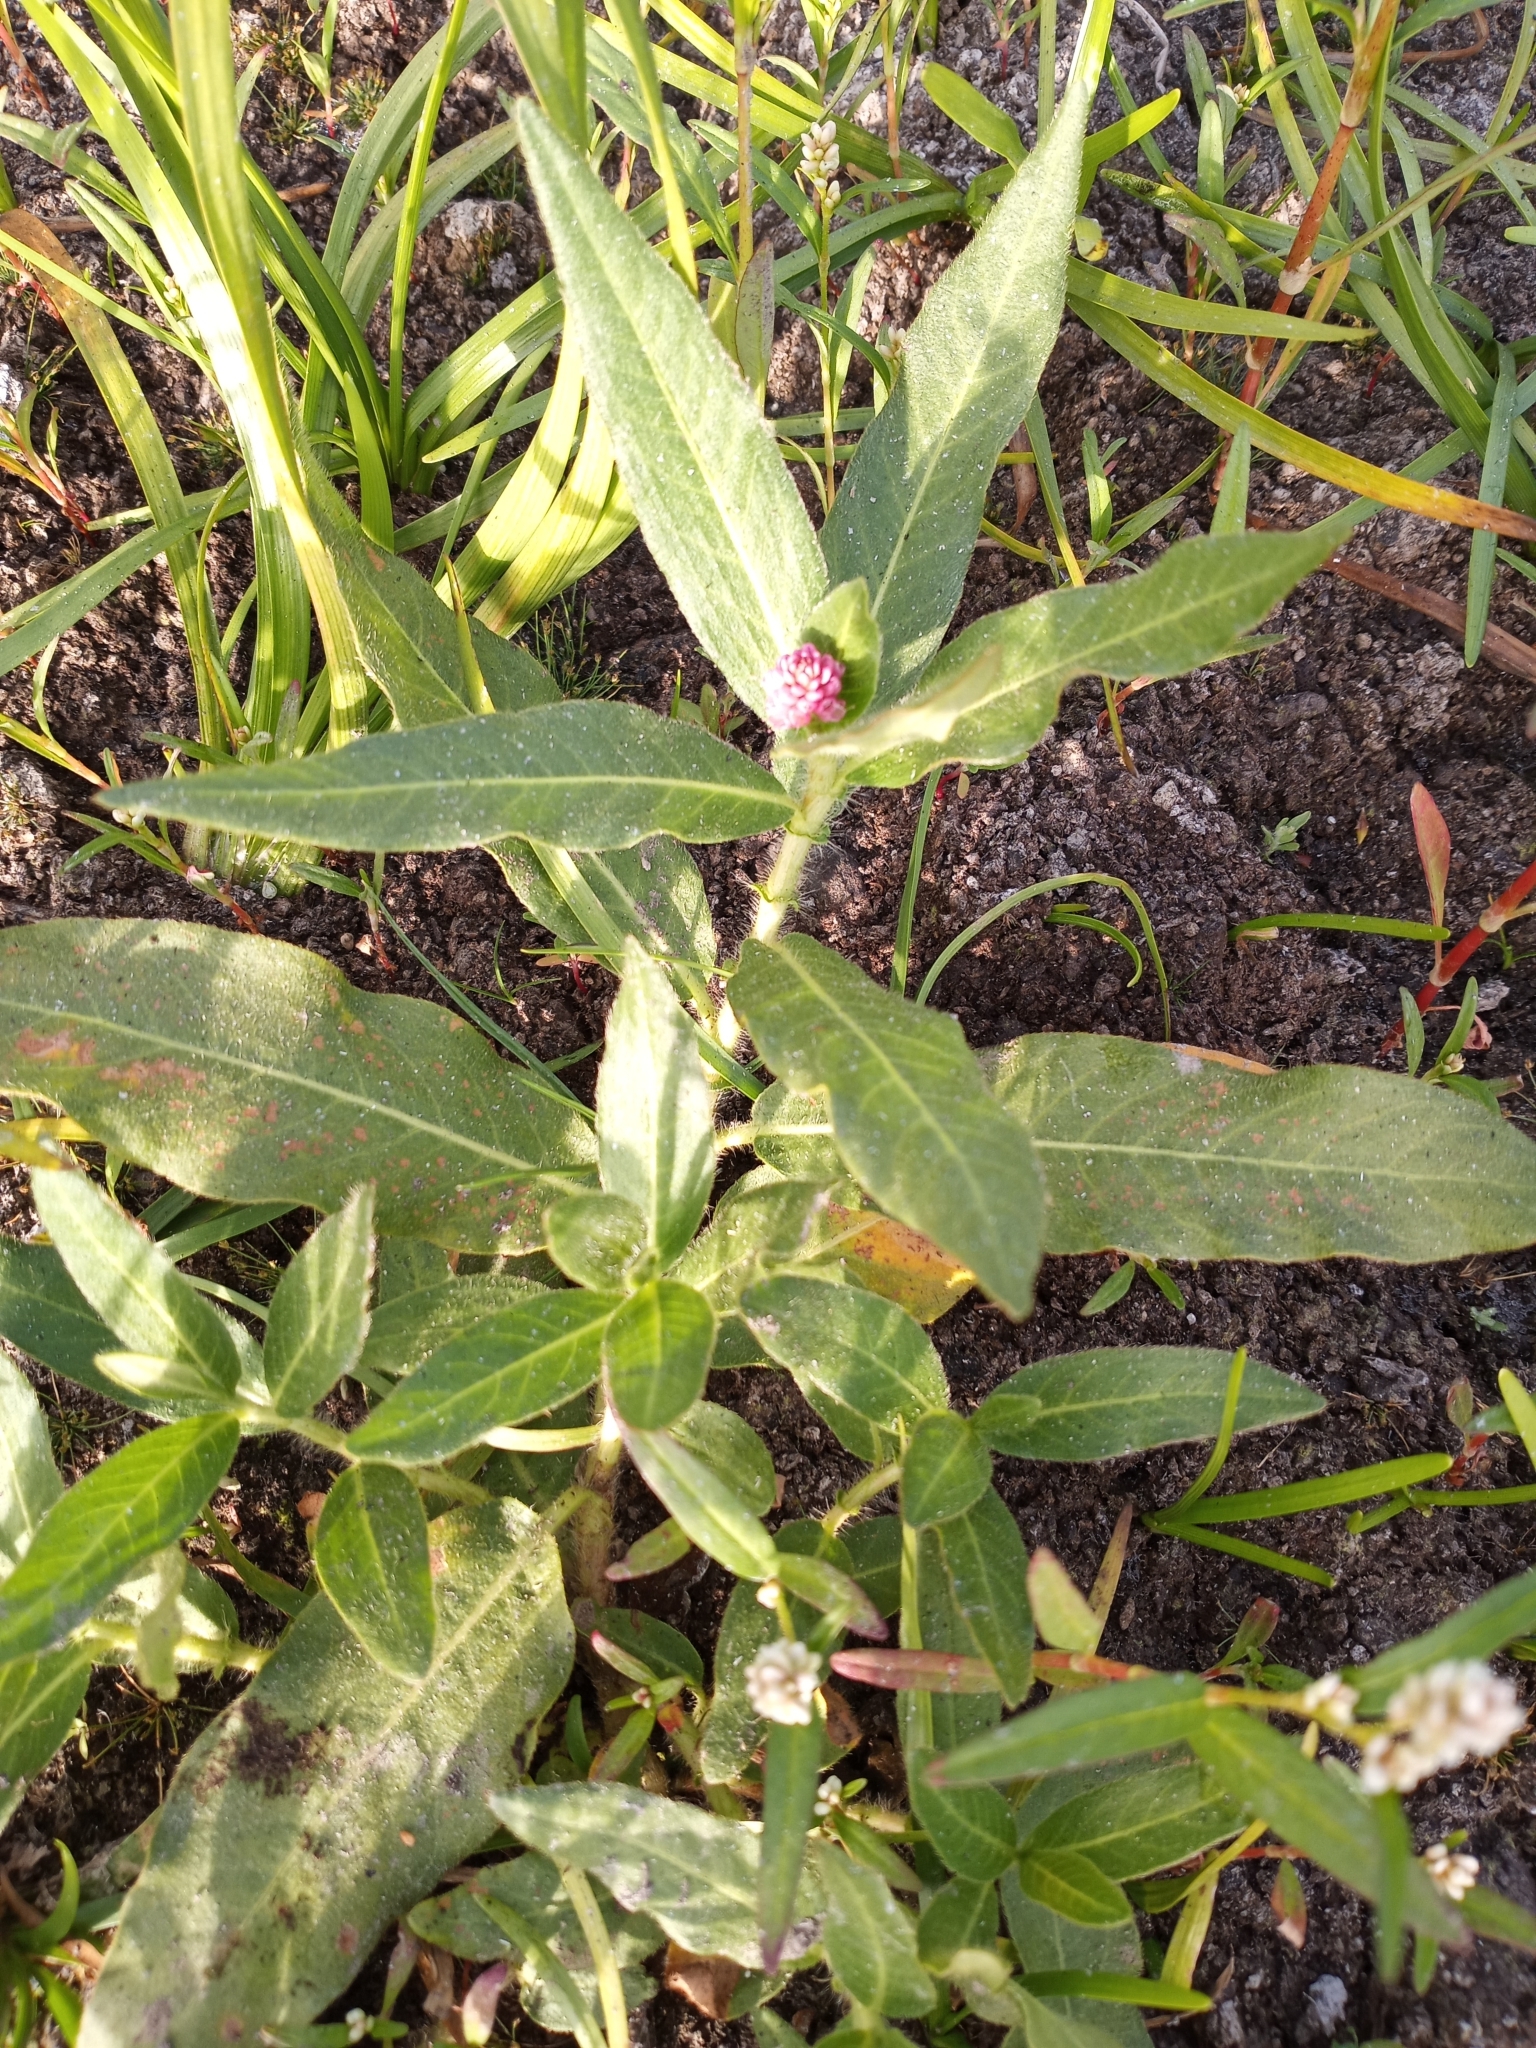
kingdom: Plantae
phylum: Tracheophyta
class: Magnoliopsida
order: Caryophyllales
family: Polygonaceae
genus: Persicaria
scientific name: Persicaria amphibia
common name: Amphibious bistort
